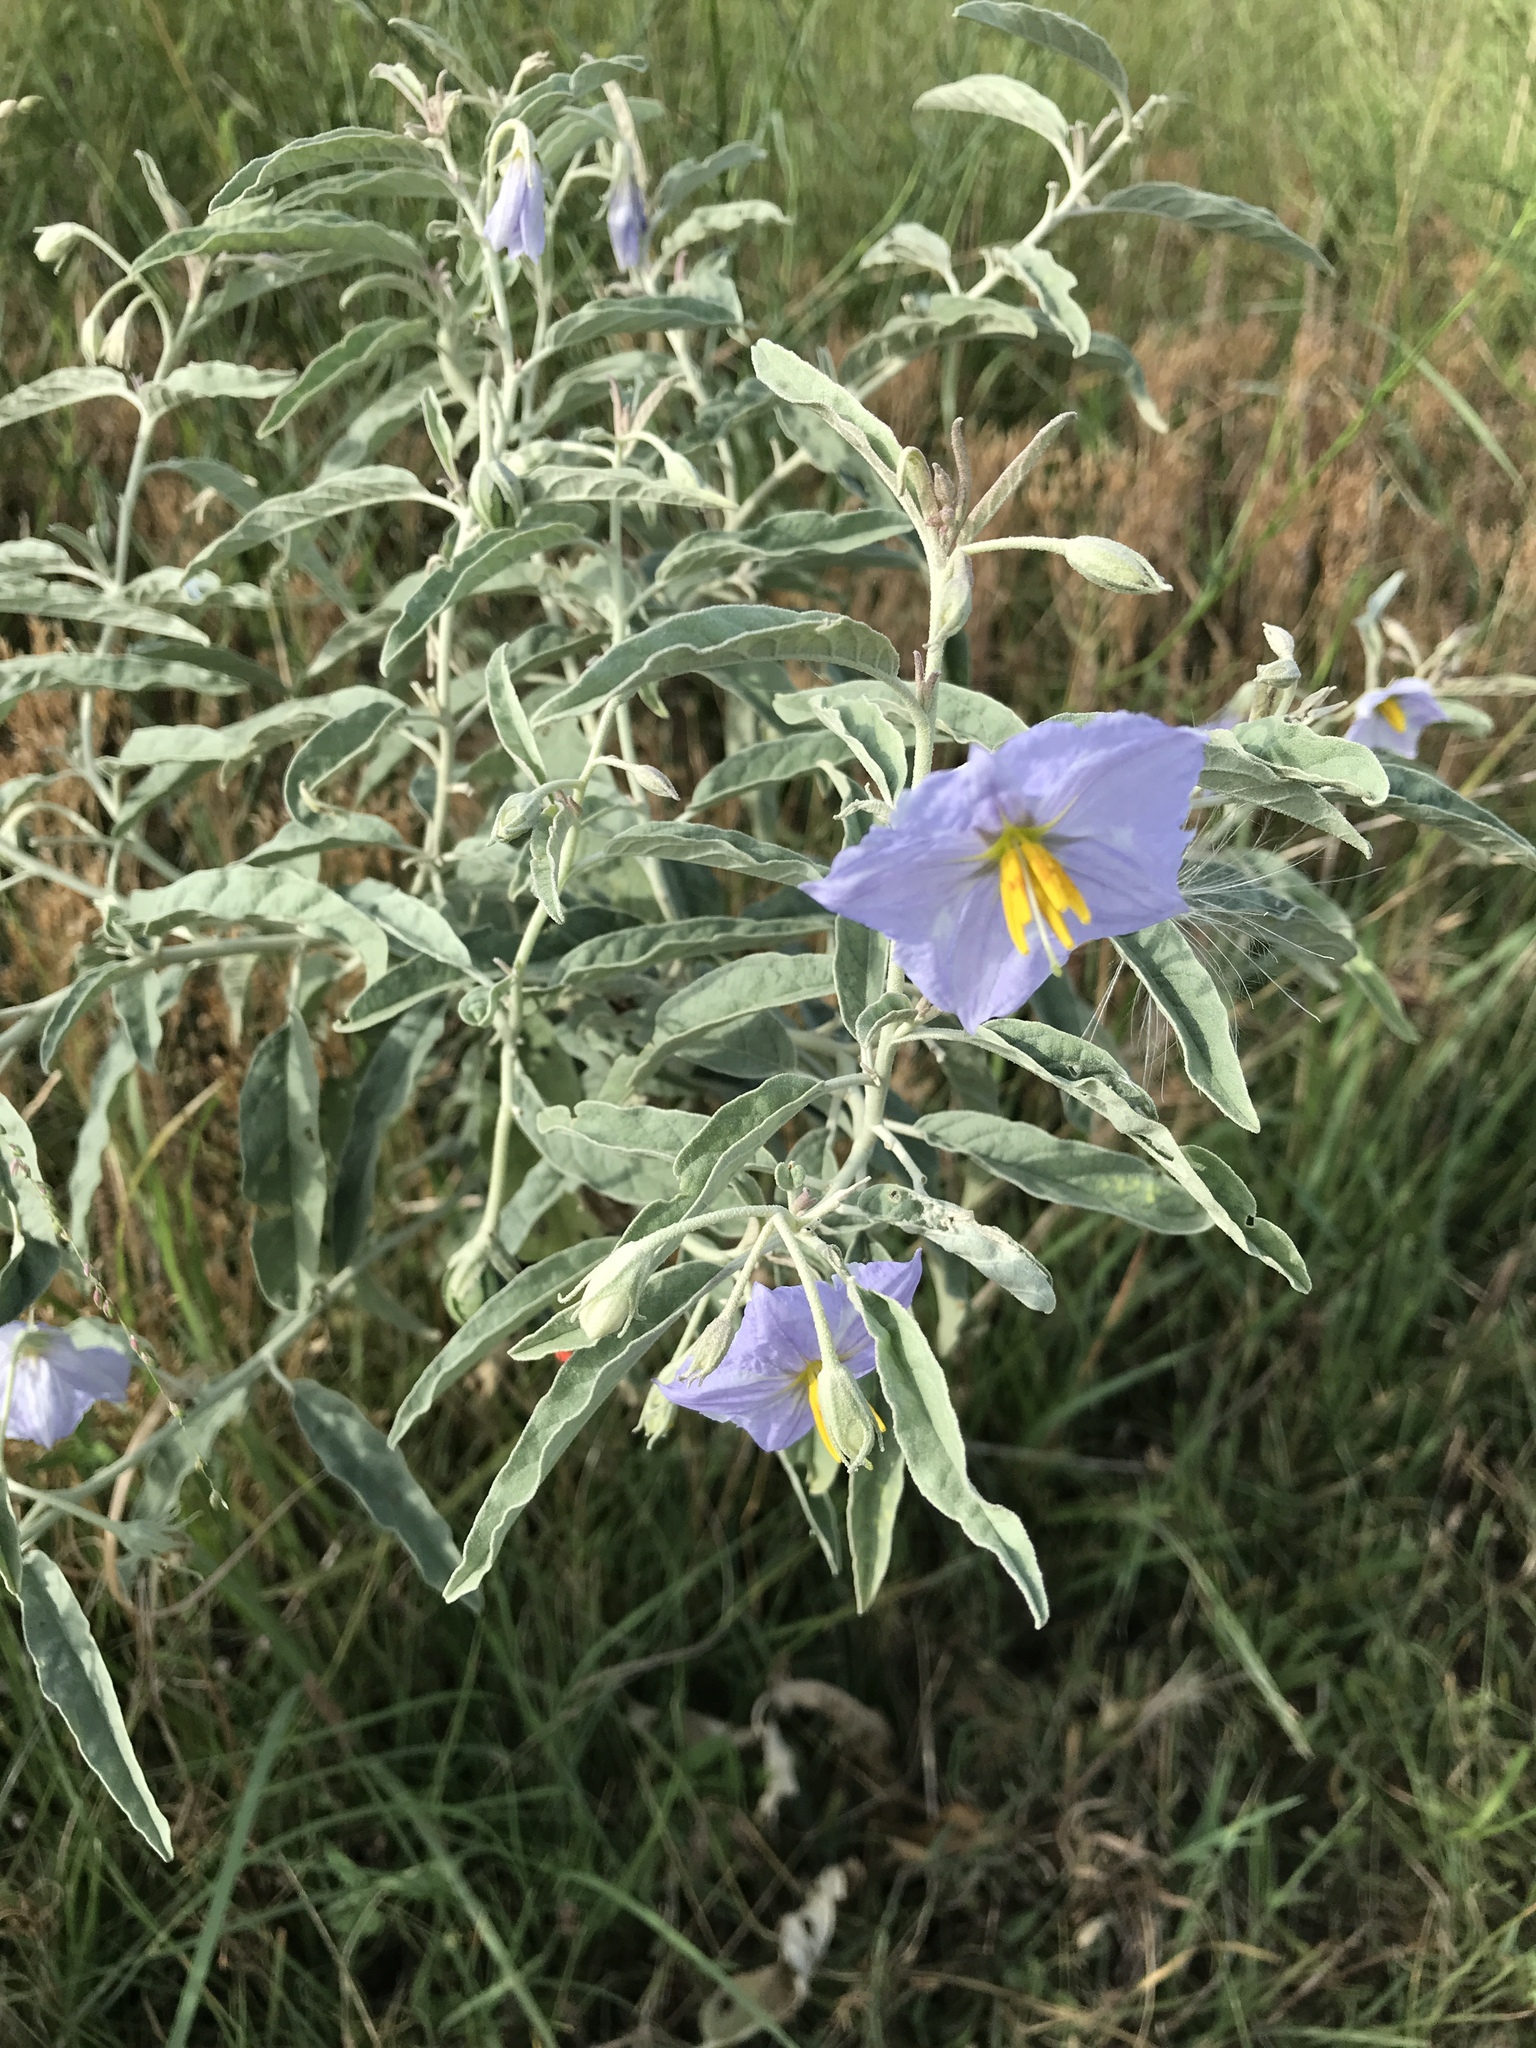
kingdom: Plantae
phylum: Tracheophyta
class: Magnoliopsida
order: Solanales
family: Solanaceae
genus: Solanum
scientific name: Solanum elaeagnifolium
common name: Silverleaf nightshade
